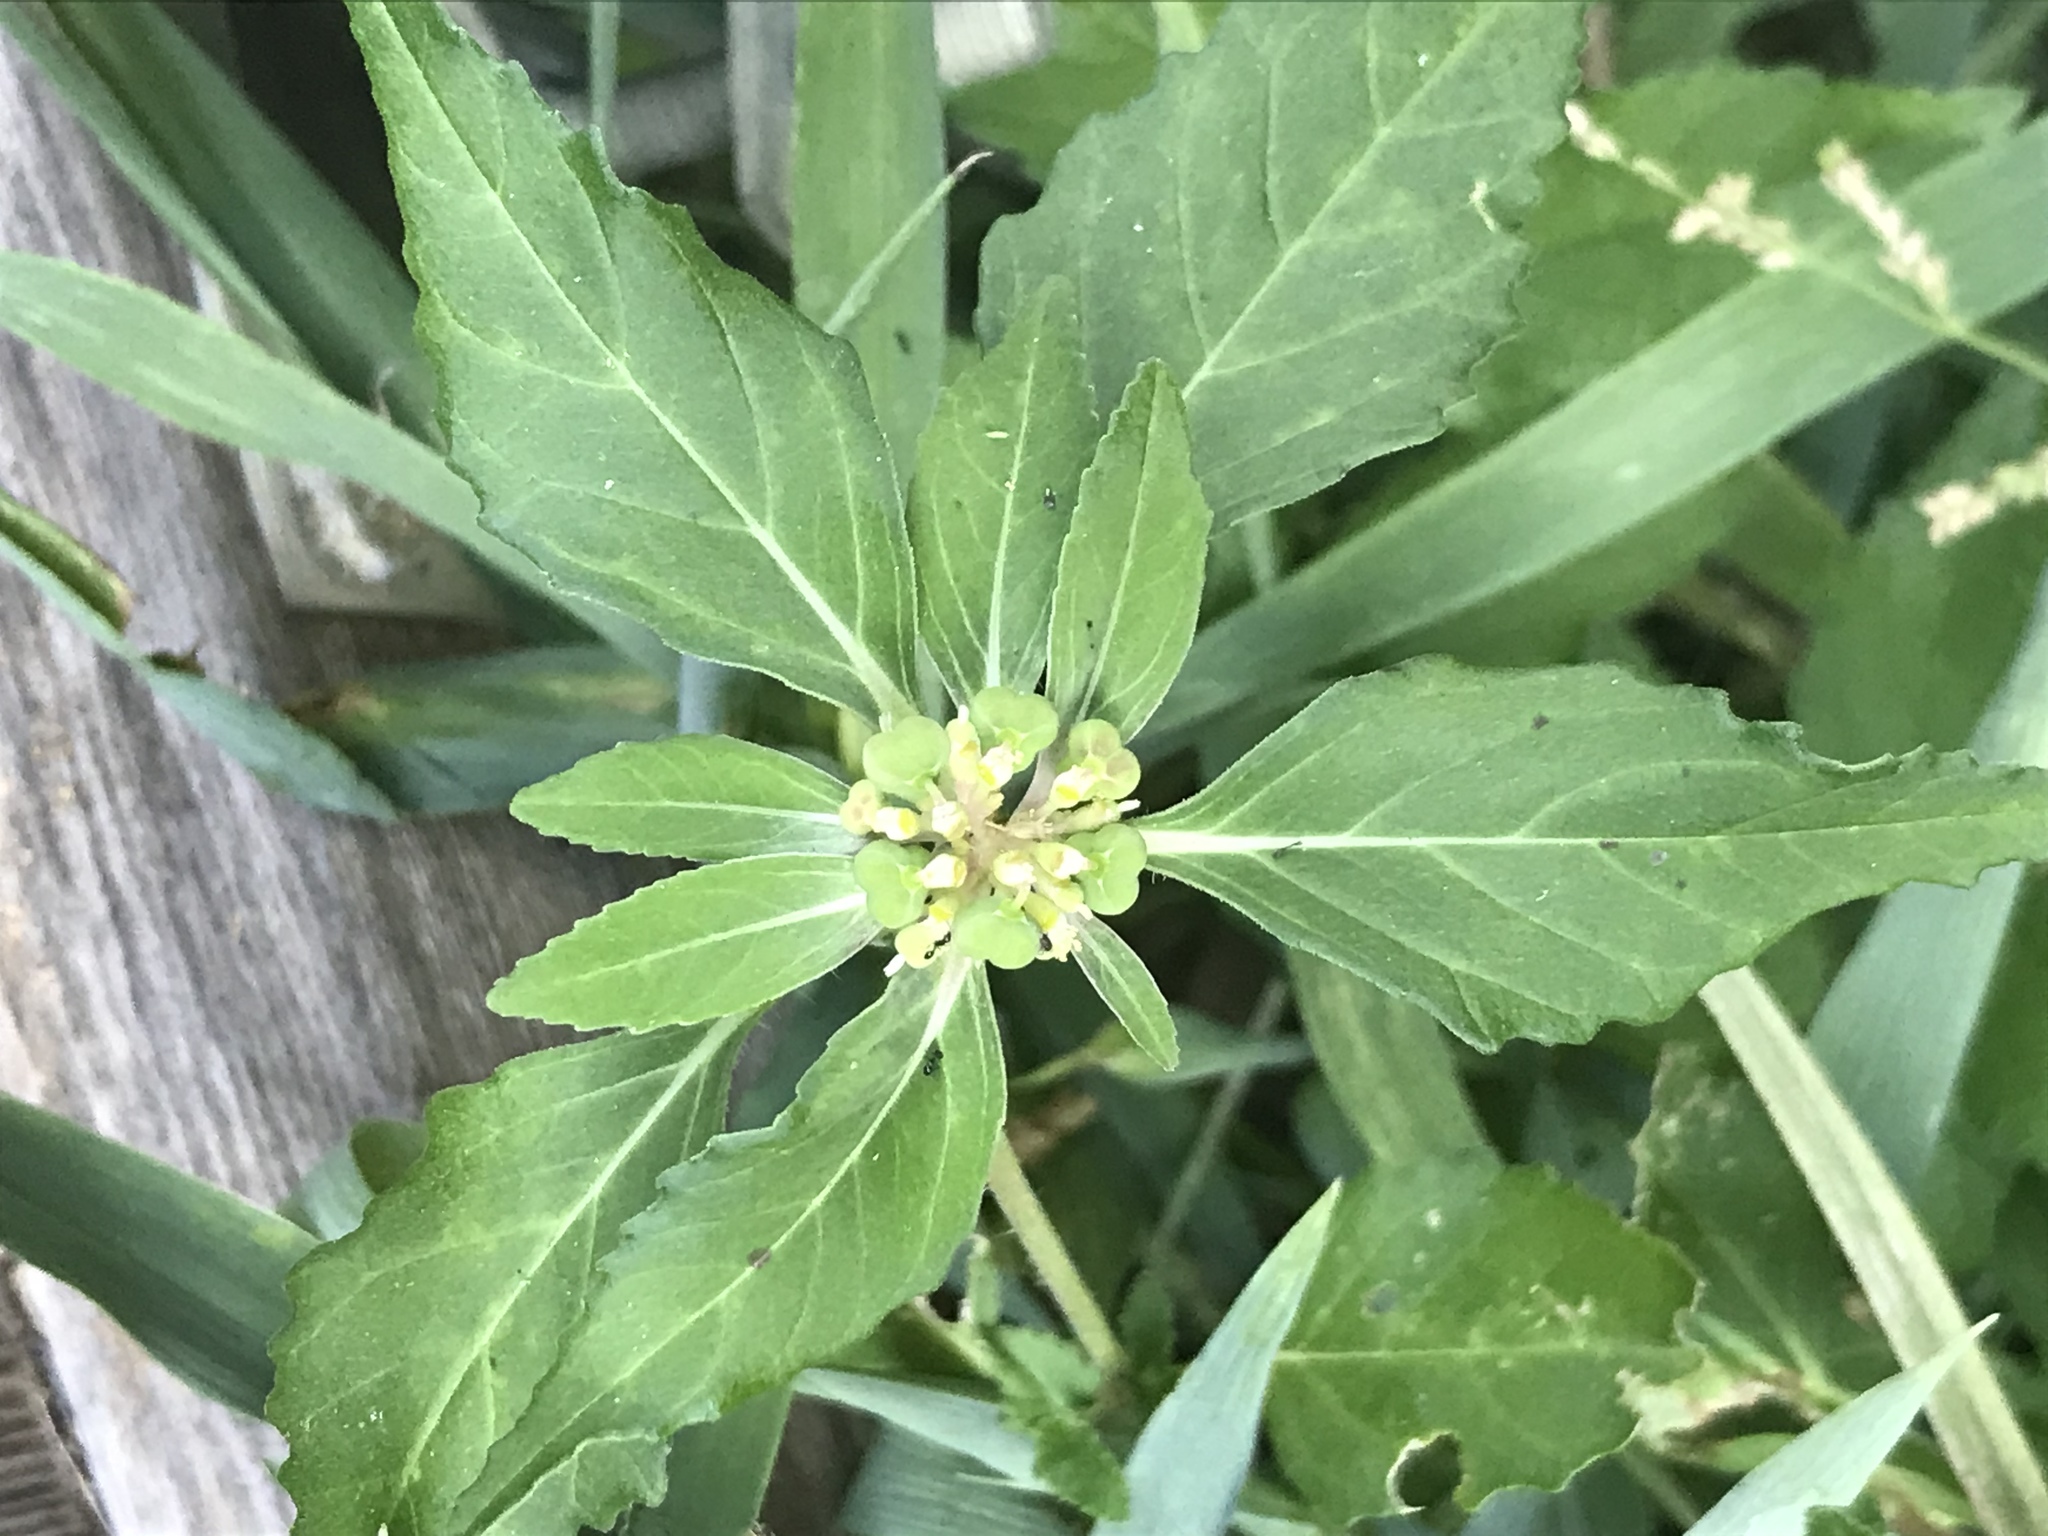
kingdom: Plantae
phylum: Tracheophyta
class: Magnoliopsida
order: Malpighiales
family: Euphorbiaceae
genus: Euphorbia
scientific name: Euphorbia dentata
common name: Dentate spurge
